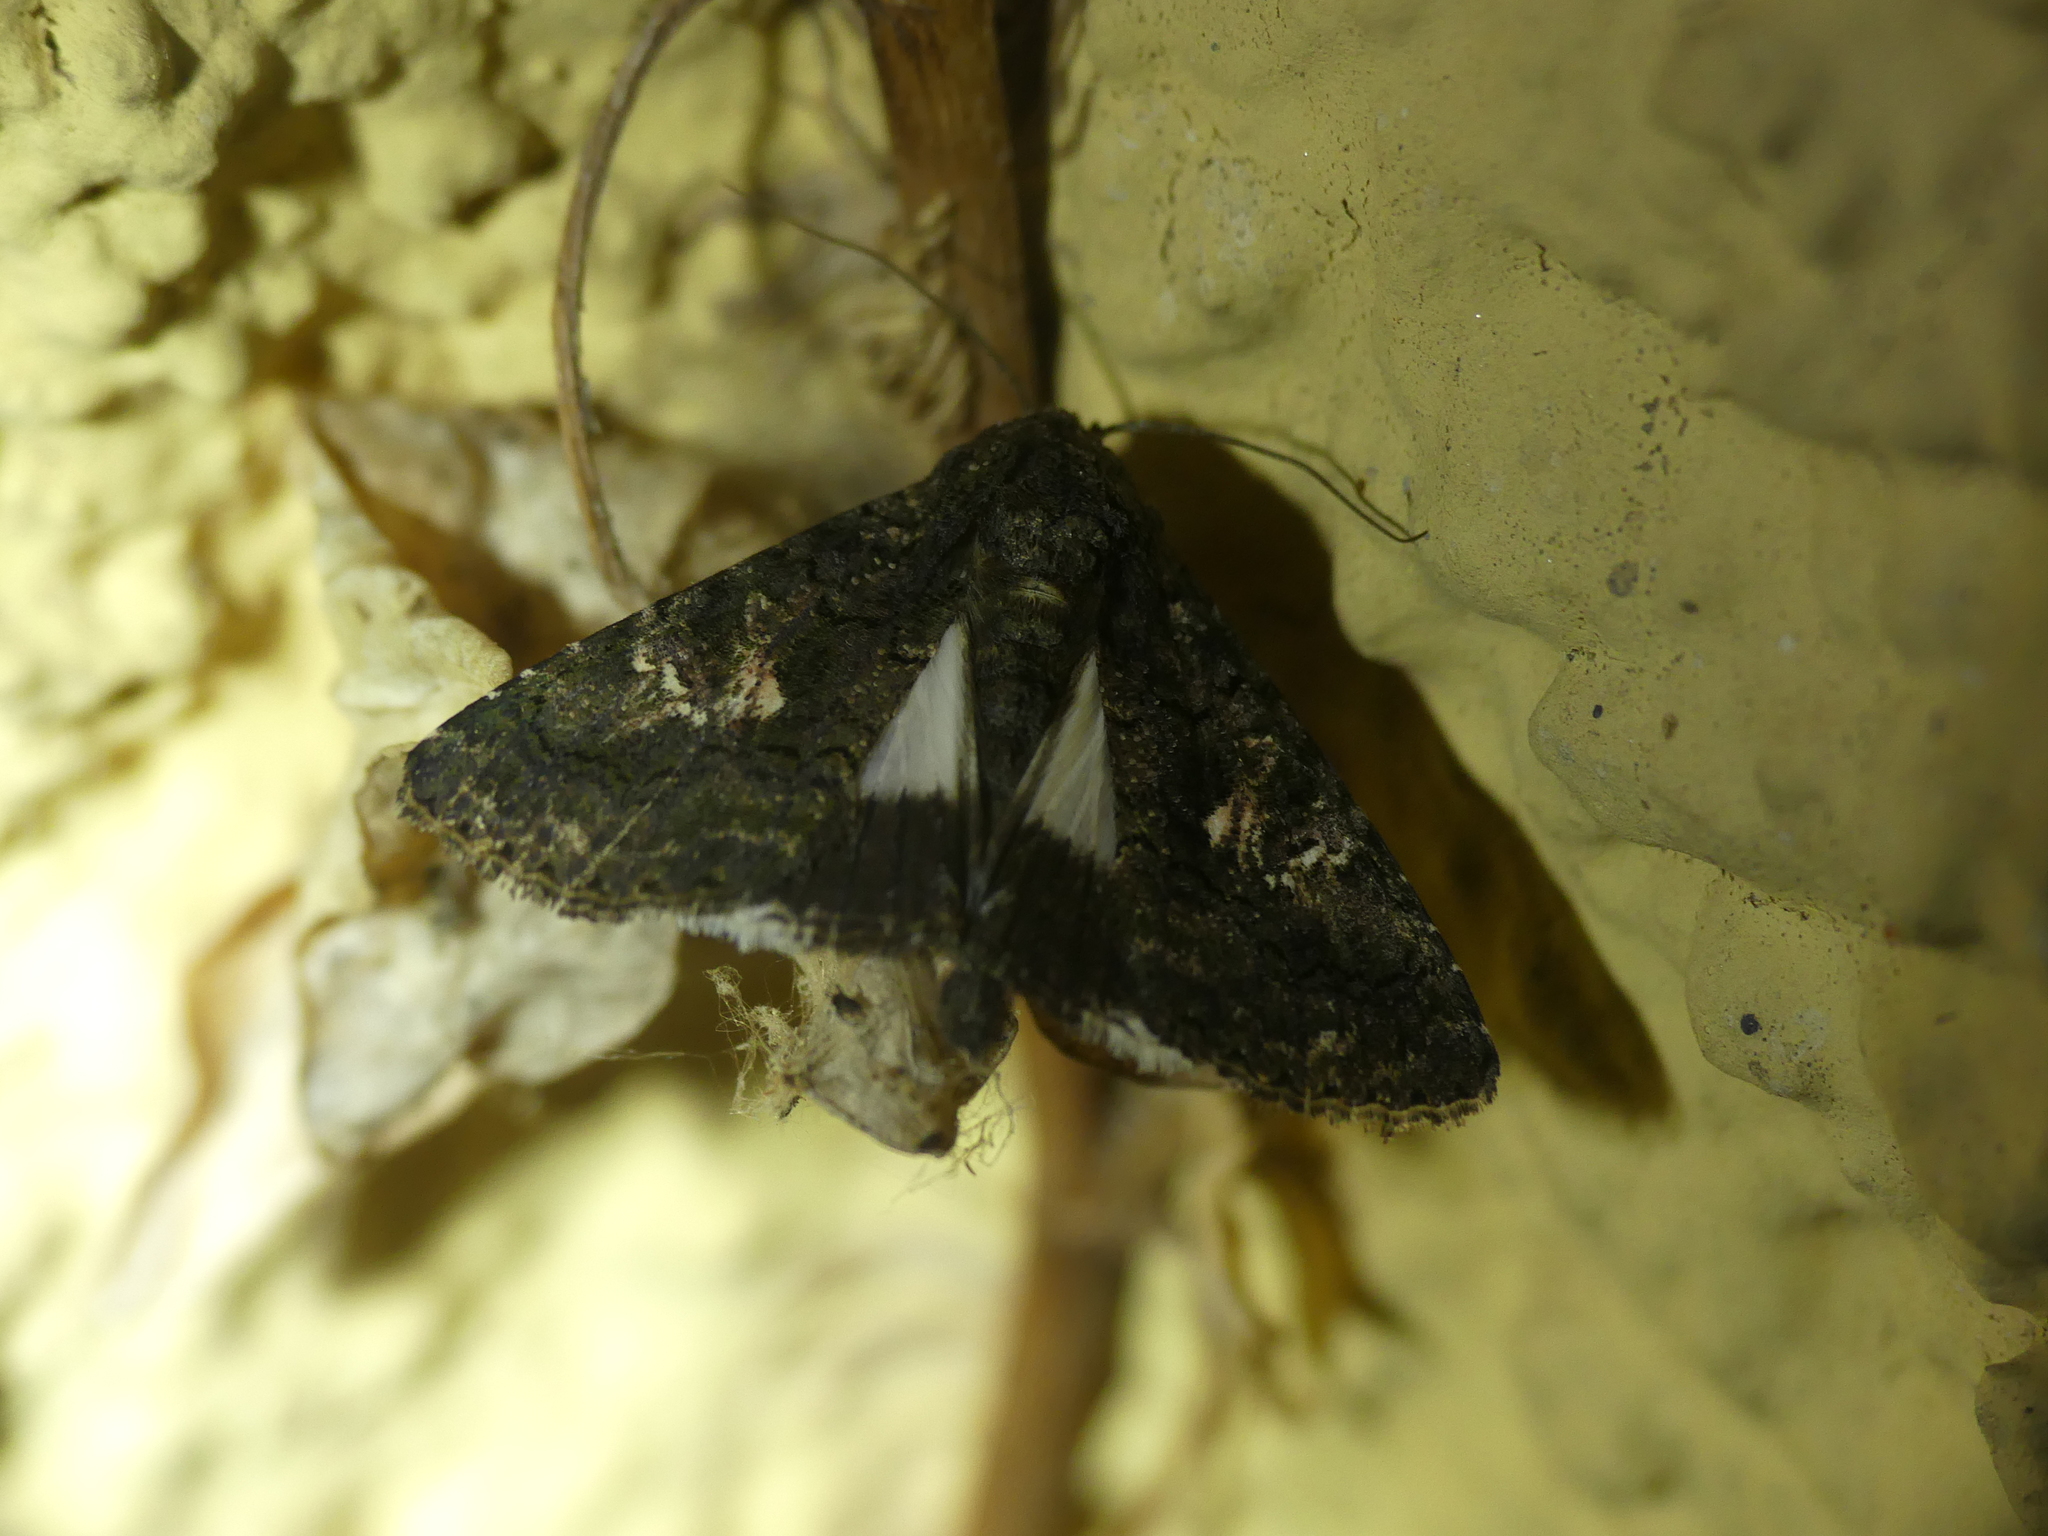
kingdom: Animalia
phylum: Arthropoda
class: Insecta
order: Lepidoptera
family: Noctuidae
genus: Aedia
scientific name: Aedia leucomelas
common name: Sorcerer
